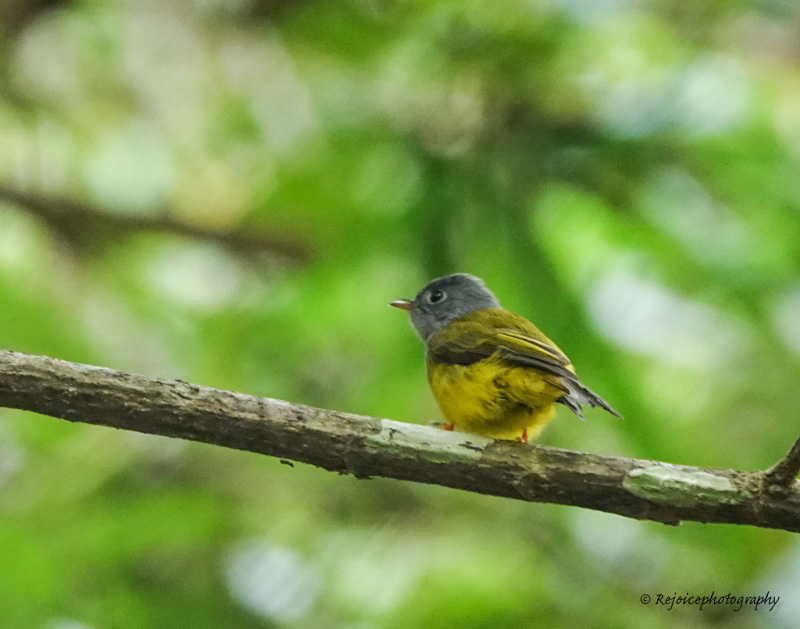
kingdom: Animalia
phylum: Chordata
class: Aves
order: Passeriformes
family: Stenostiridae
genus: Culicicapa
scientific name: Culicicapa ceylonensis
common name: Grey-headed canary-flycatcher
